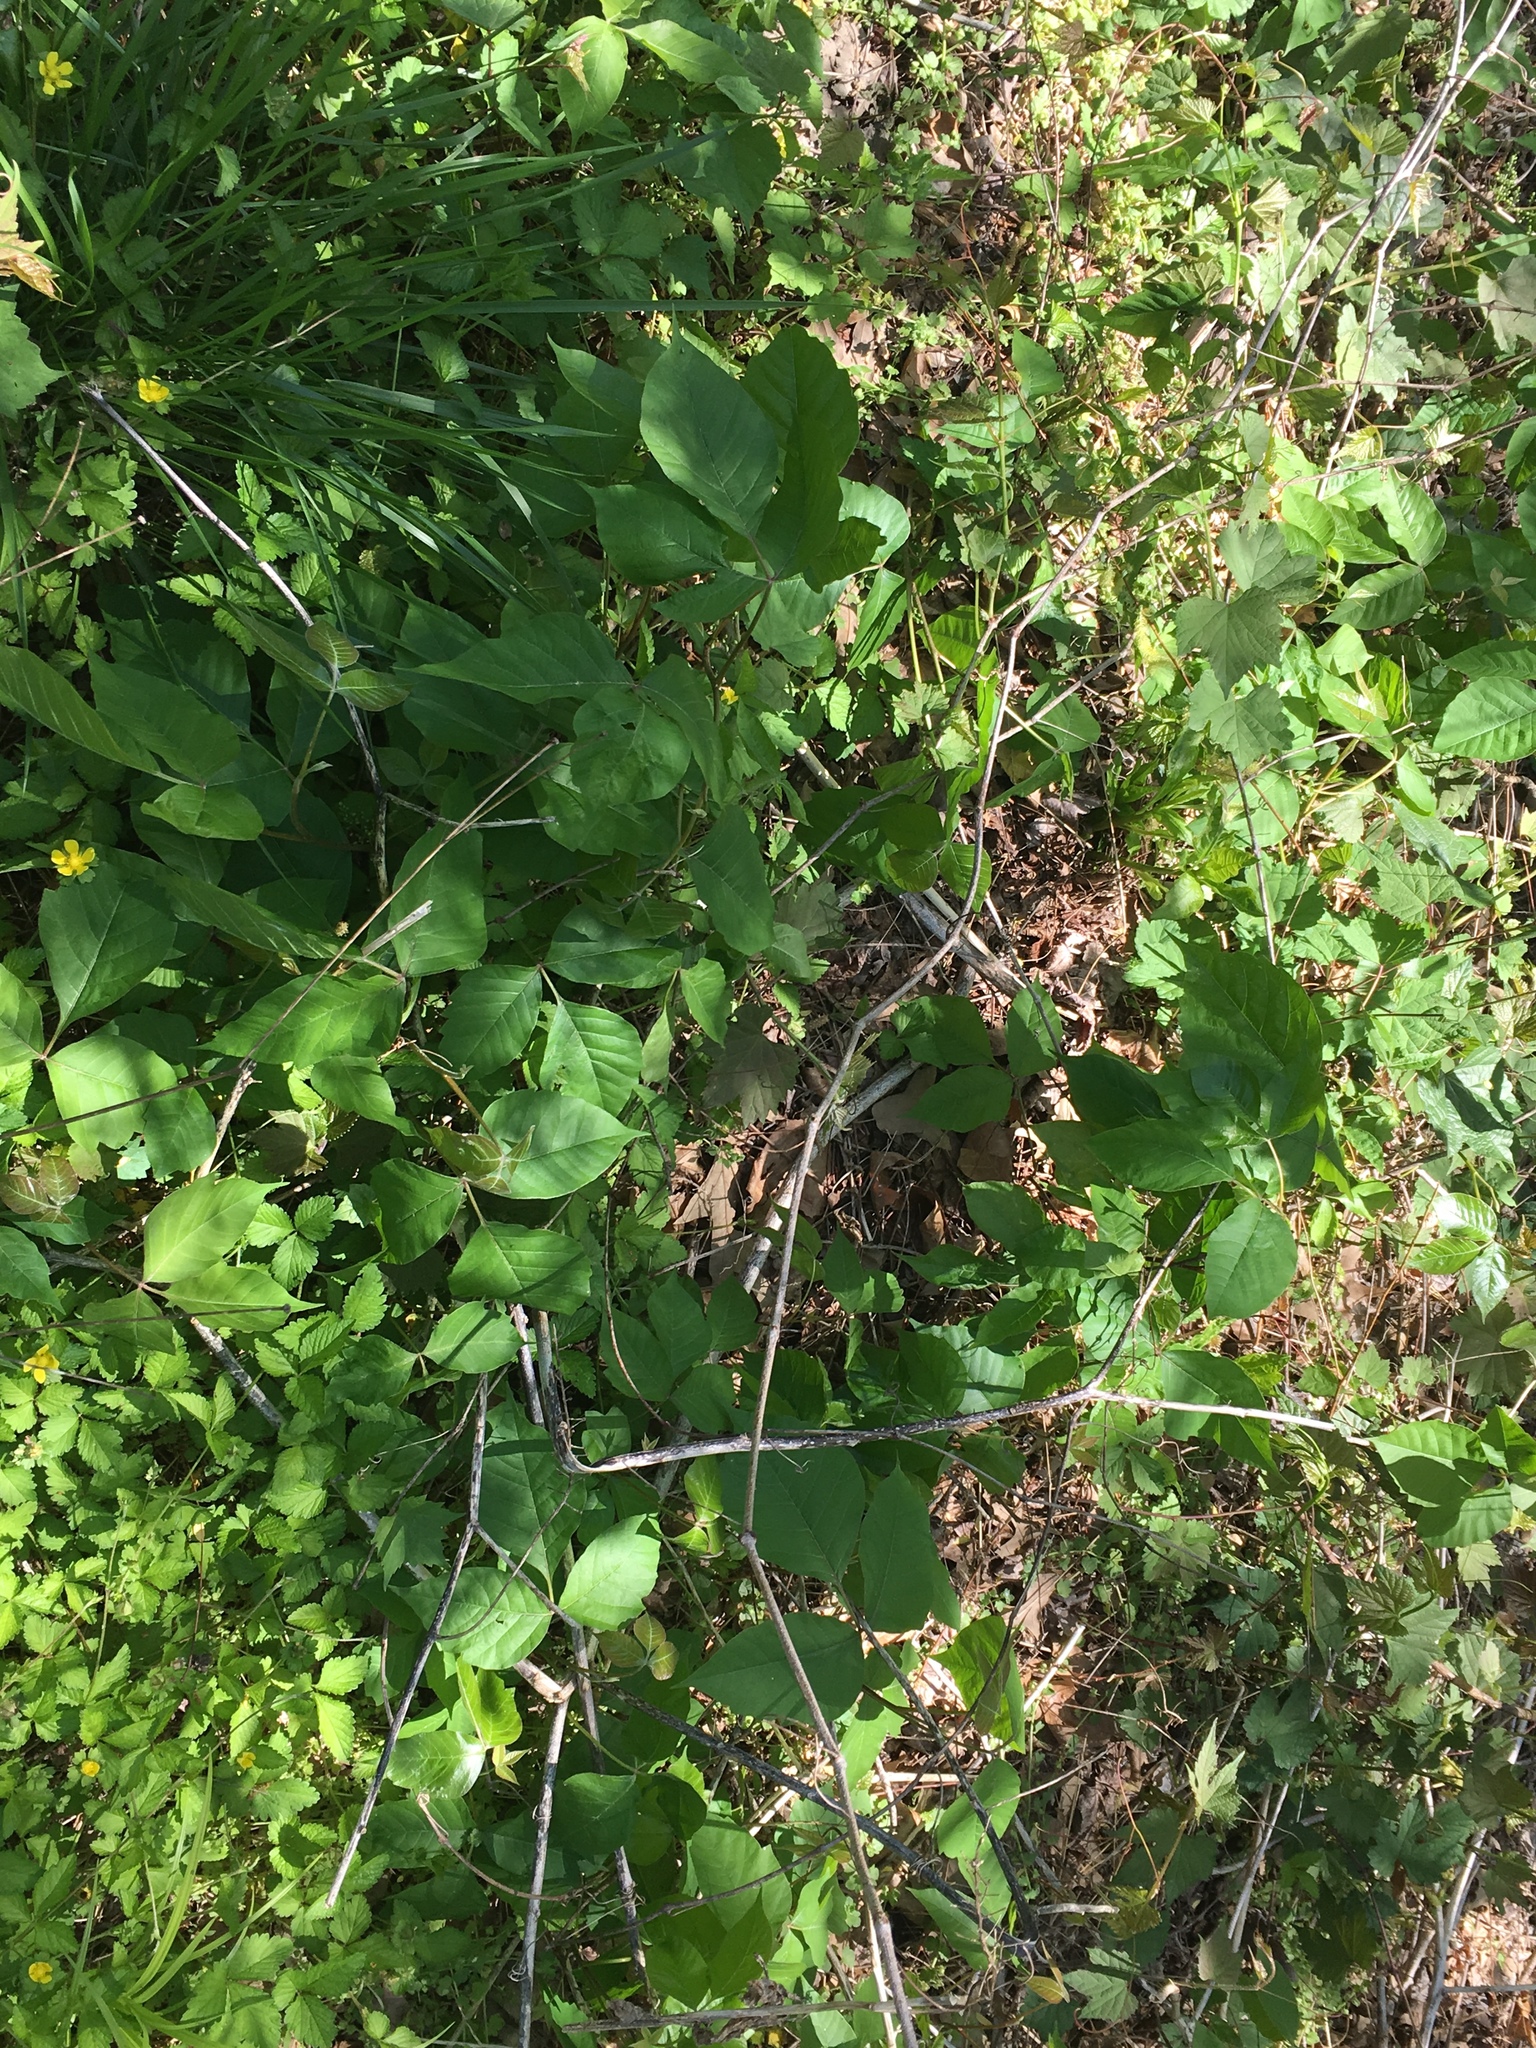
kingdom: Plantae
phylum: Tracheophyta
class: Magnoliopsida
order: Sapindales
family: Anacardiaceae
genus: Toxicodendron
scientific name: Toxicodendron radicans
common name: Poison ivy
